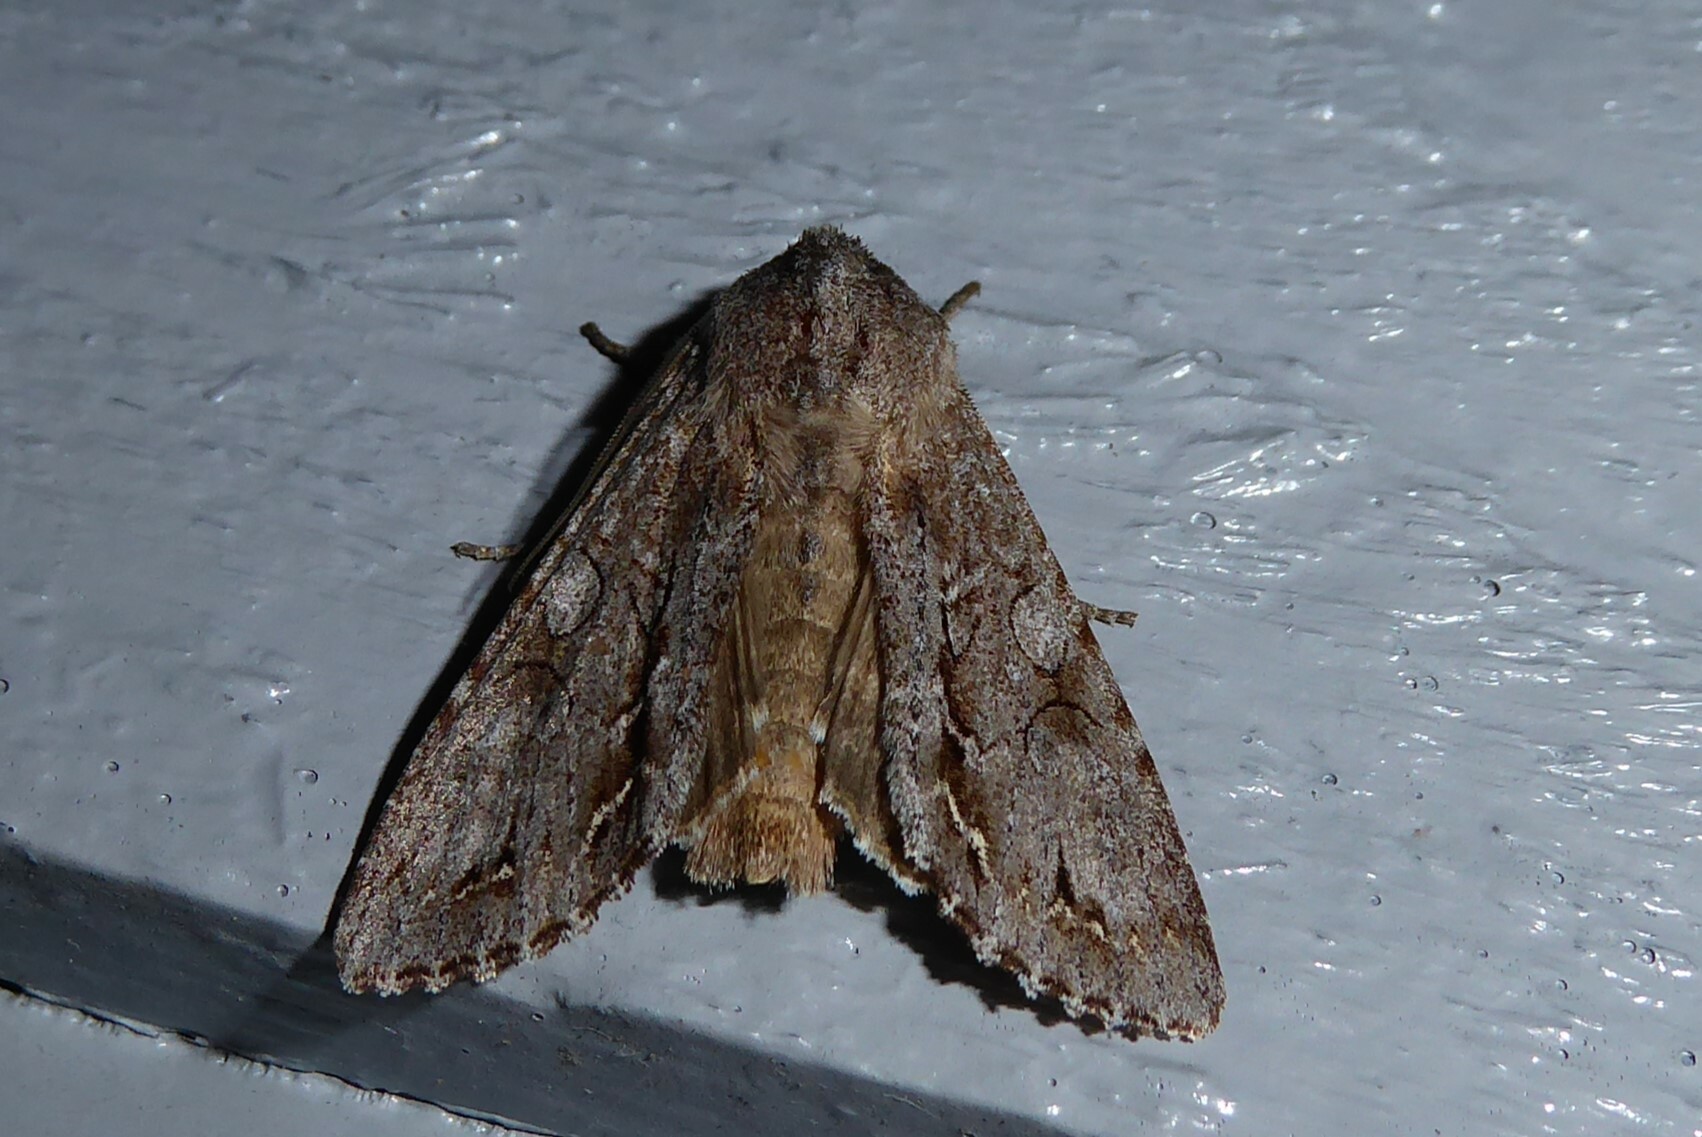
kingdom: Animalia
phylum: Arthropoda
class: Insecta
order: Lepidoptera
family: Noctuidae
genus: Ichneutica
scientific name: Ichneutica
